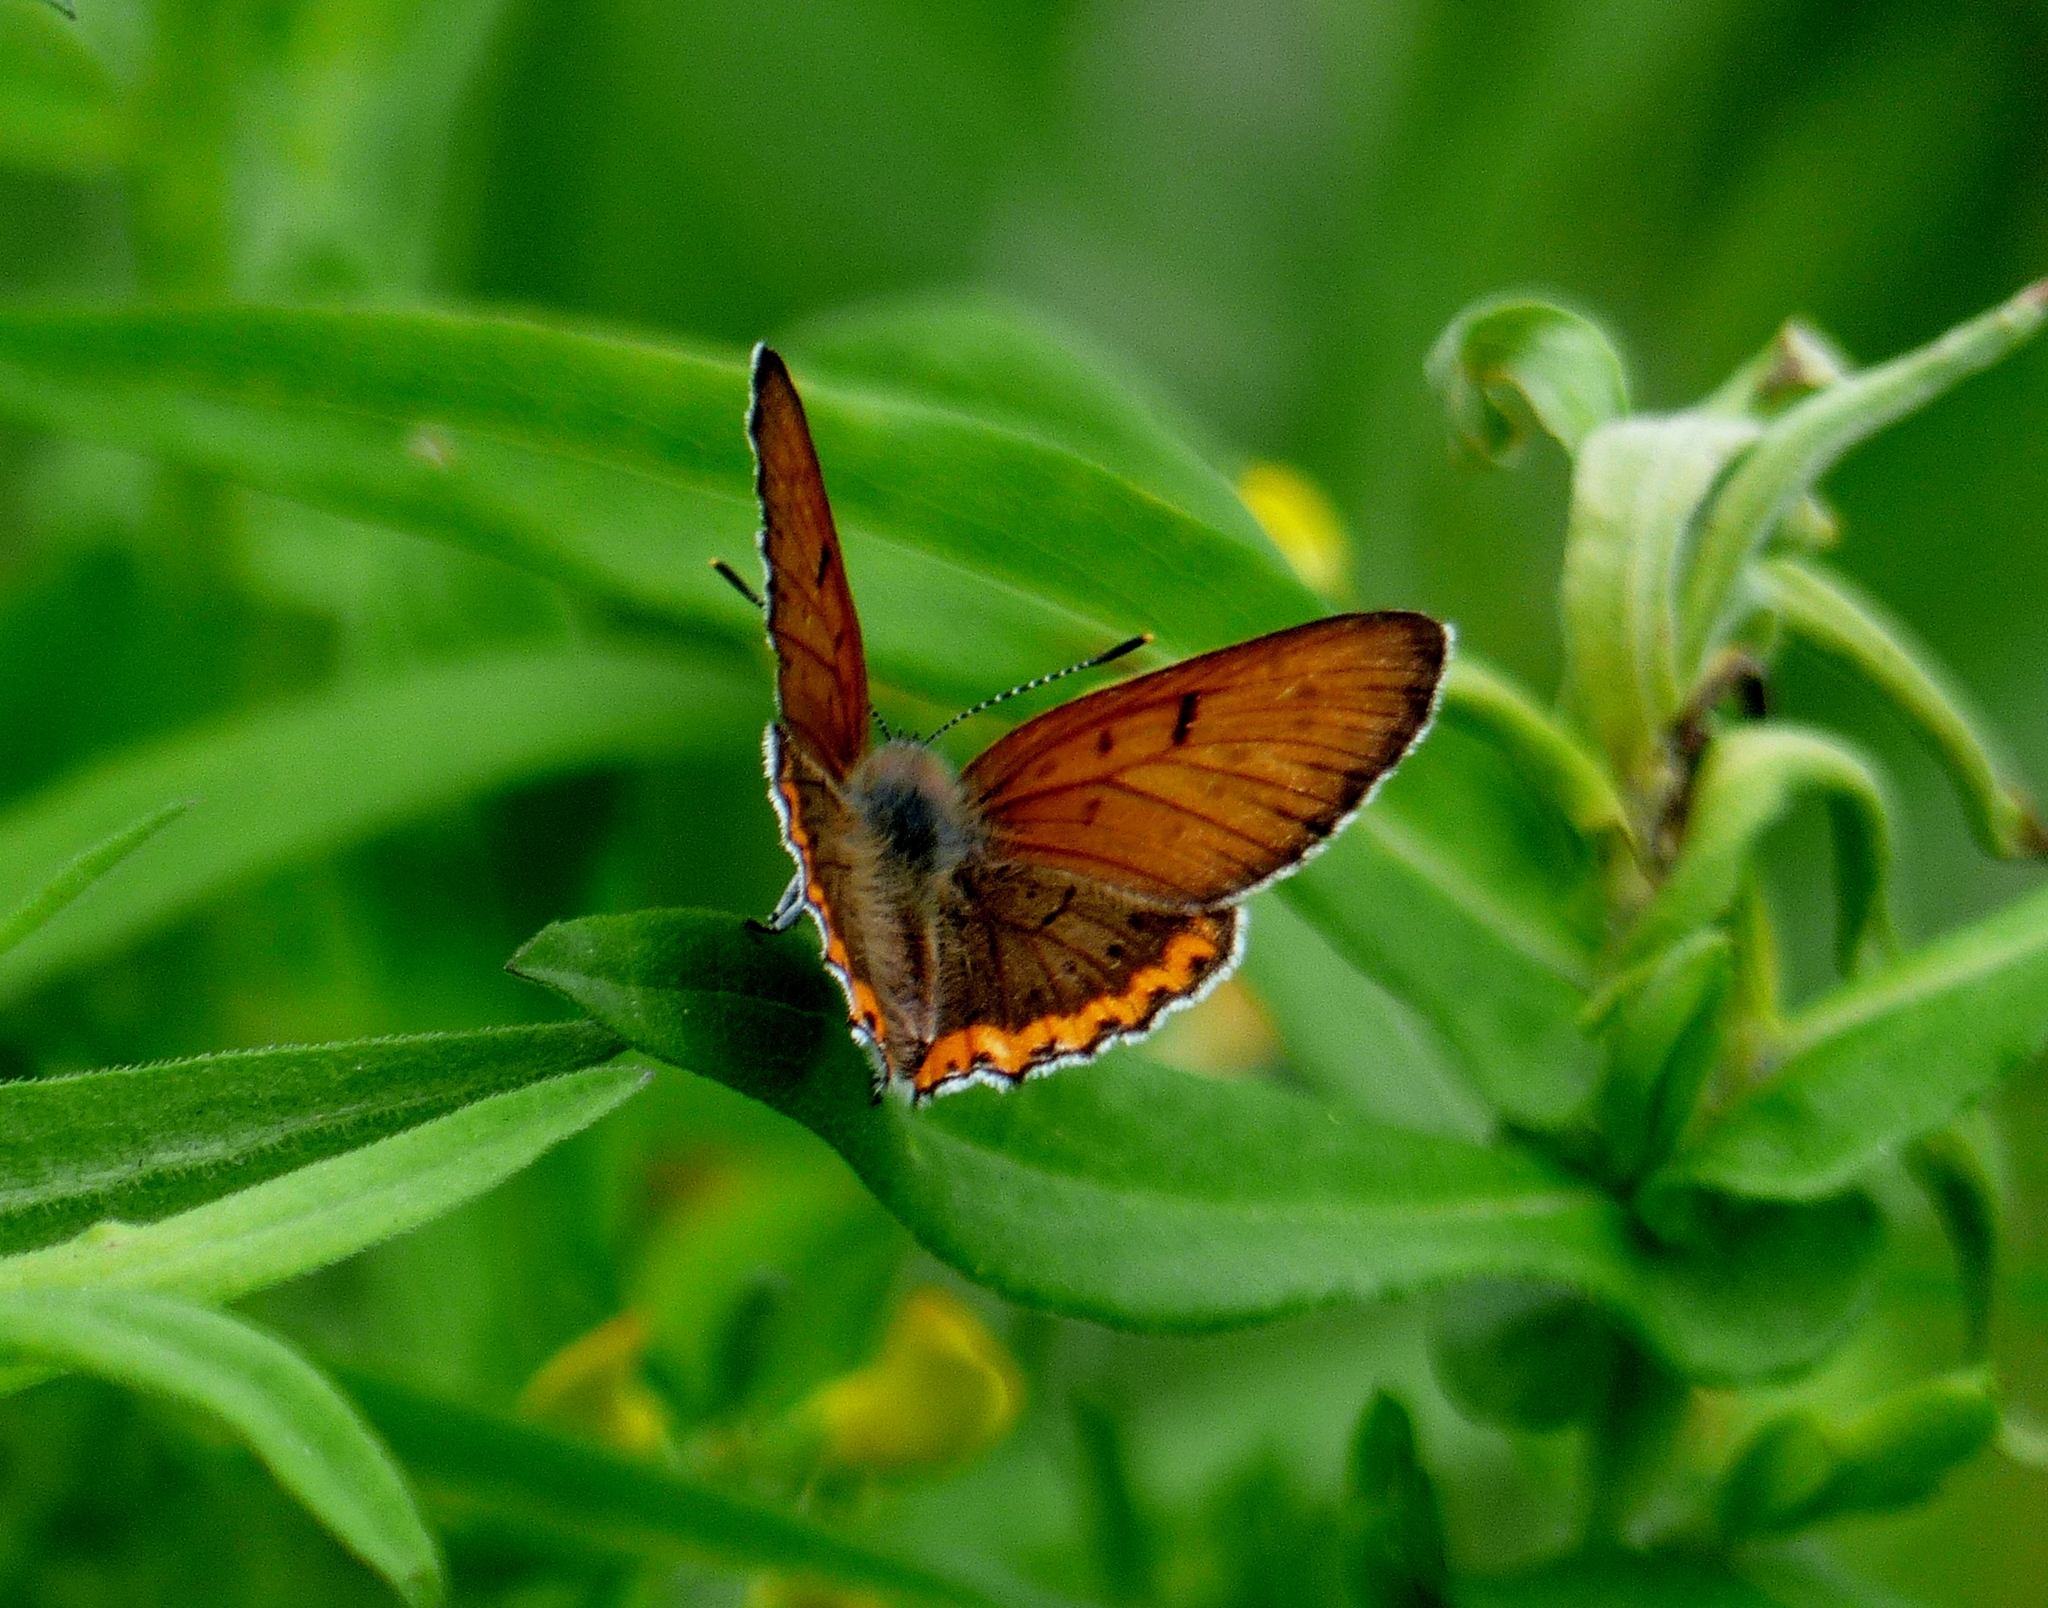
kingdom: Animalia
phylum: Arthropoda
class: Insecta
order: Lepidoptera
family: Lycaenidae
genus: Tharsalea
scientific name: Tharsalea hyllus
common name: Bronze copper
